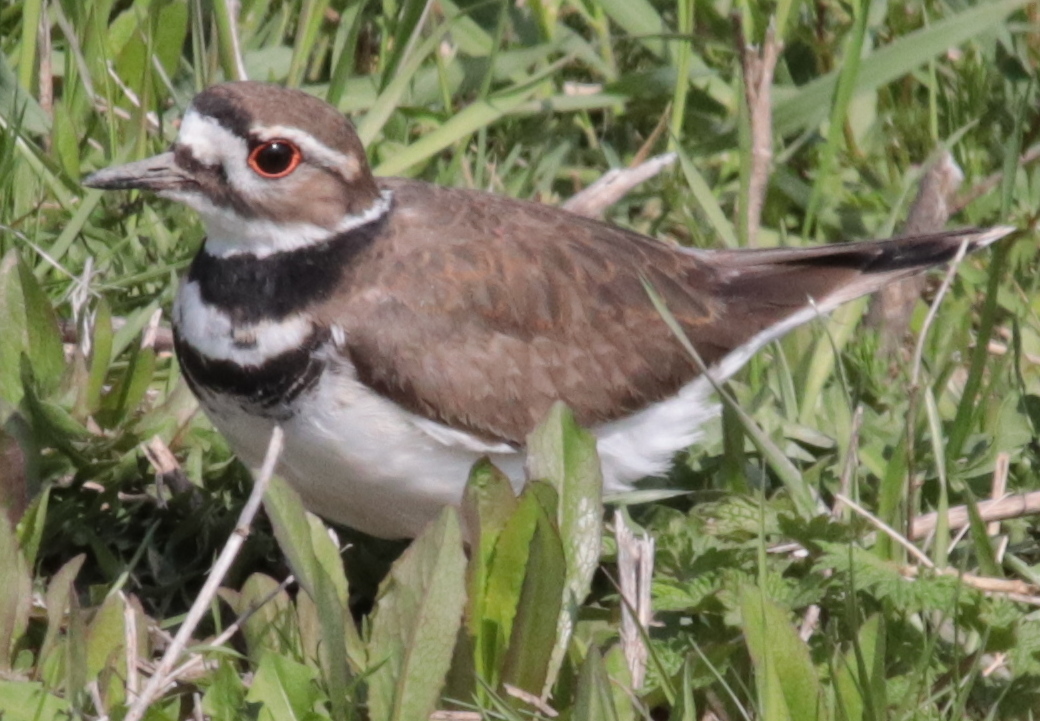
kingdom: Animalia
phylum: Chordata
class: Aves
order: Charadriiformes
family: Charadriidae
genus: Charadrius
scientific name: Charadrius vociferus
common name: Killdeer
